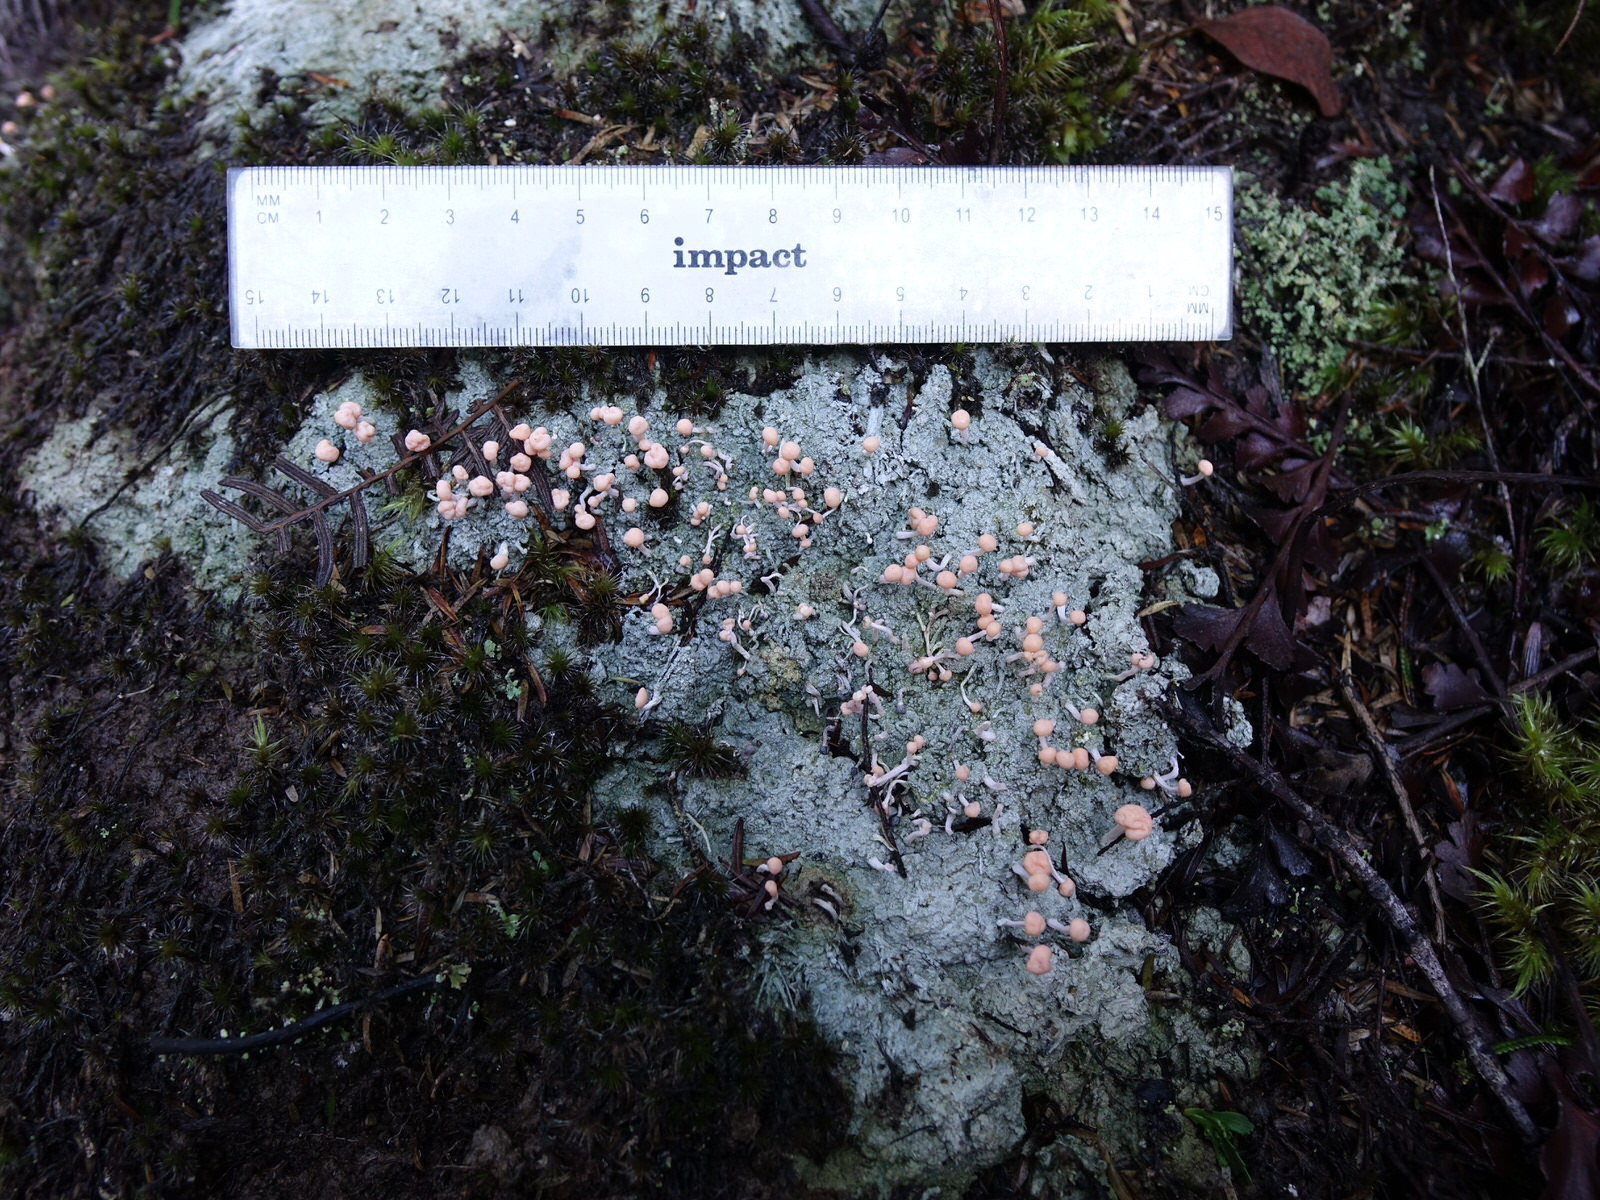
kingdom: Fungi
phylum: Ascomycota
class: Lecanoromycetes
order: Pertusariales
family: Icmadophilaceae
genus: Dibaeis
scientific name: Dibaeis arcuata
